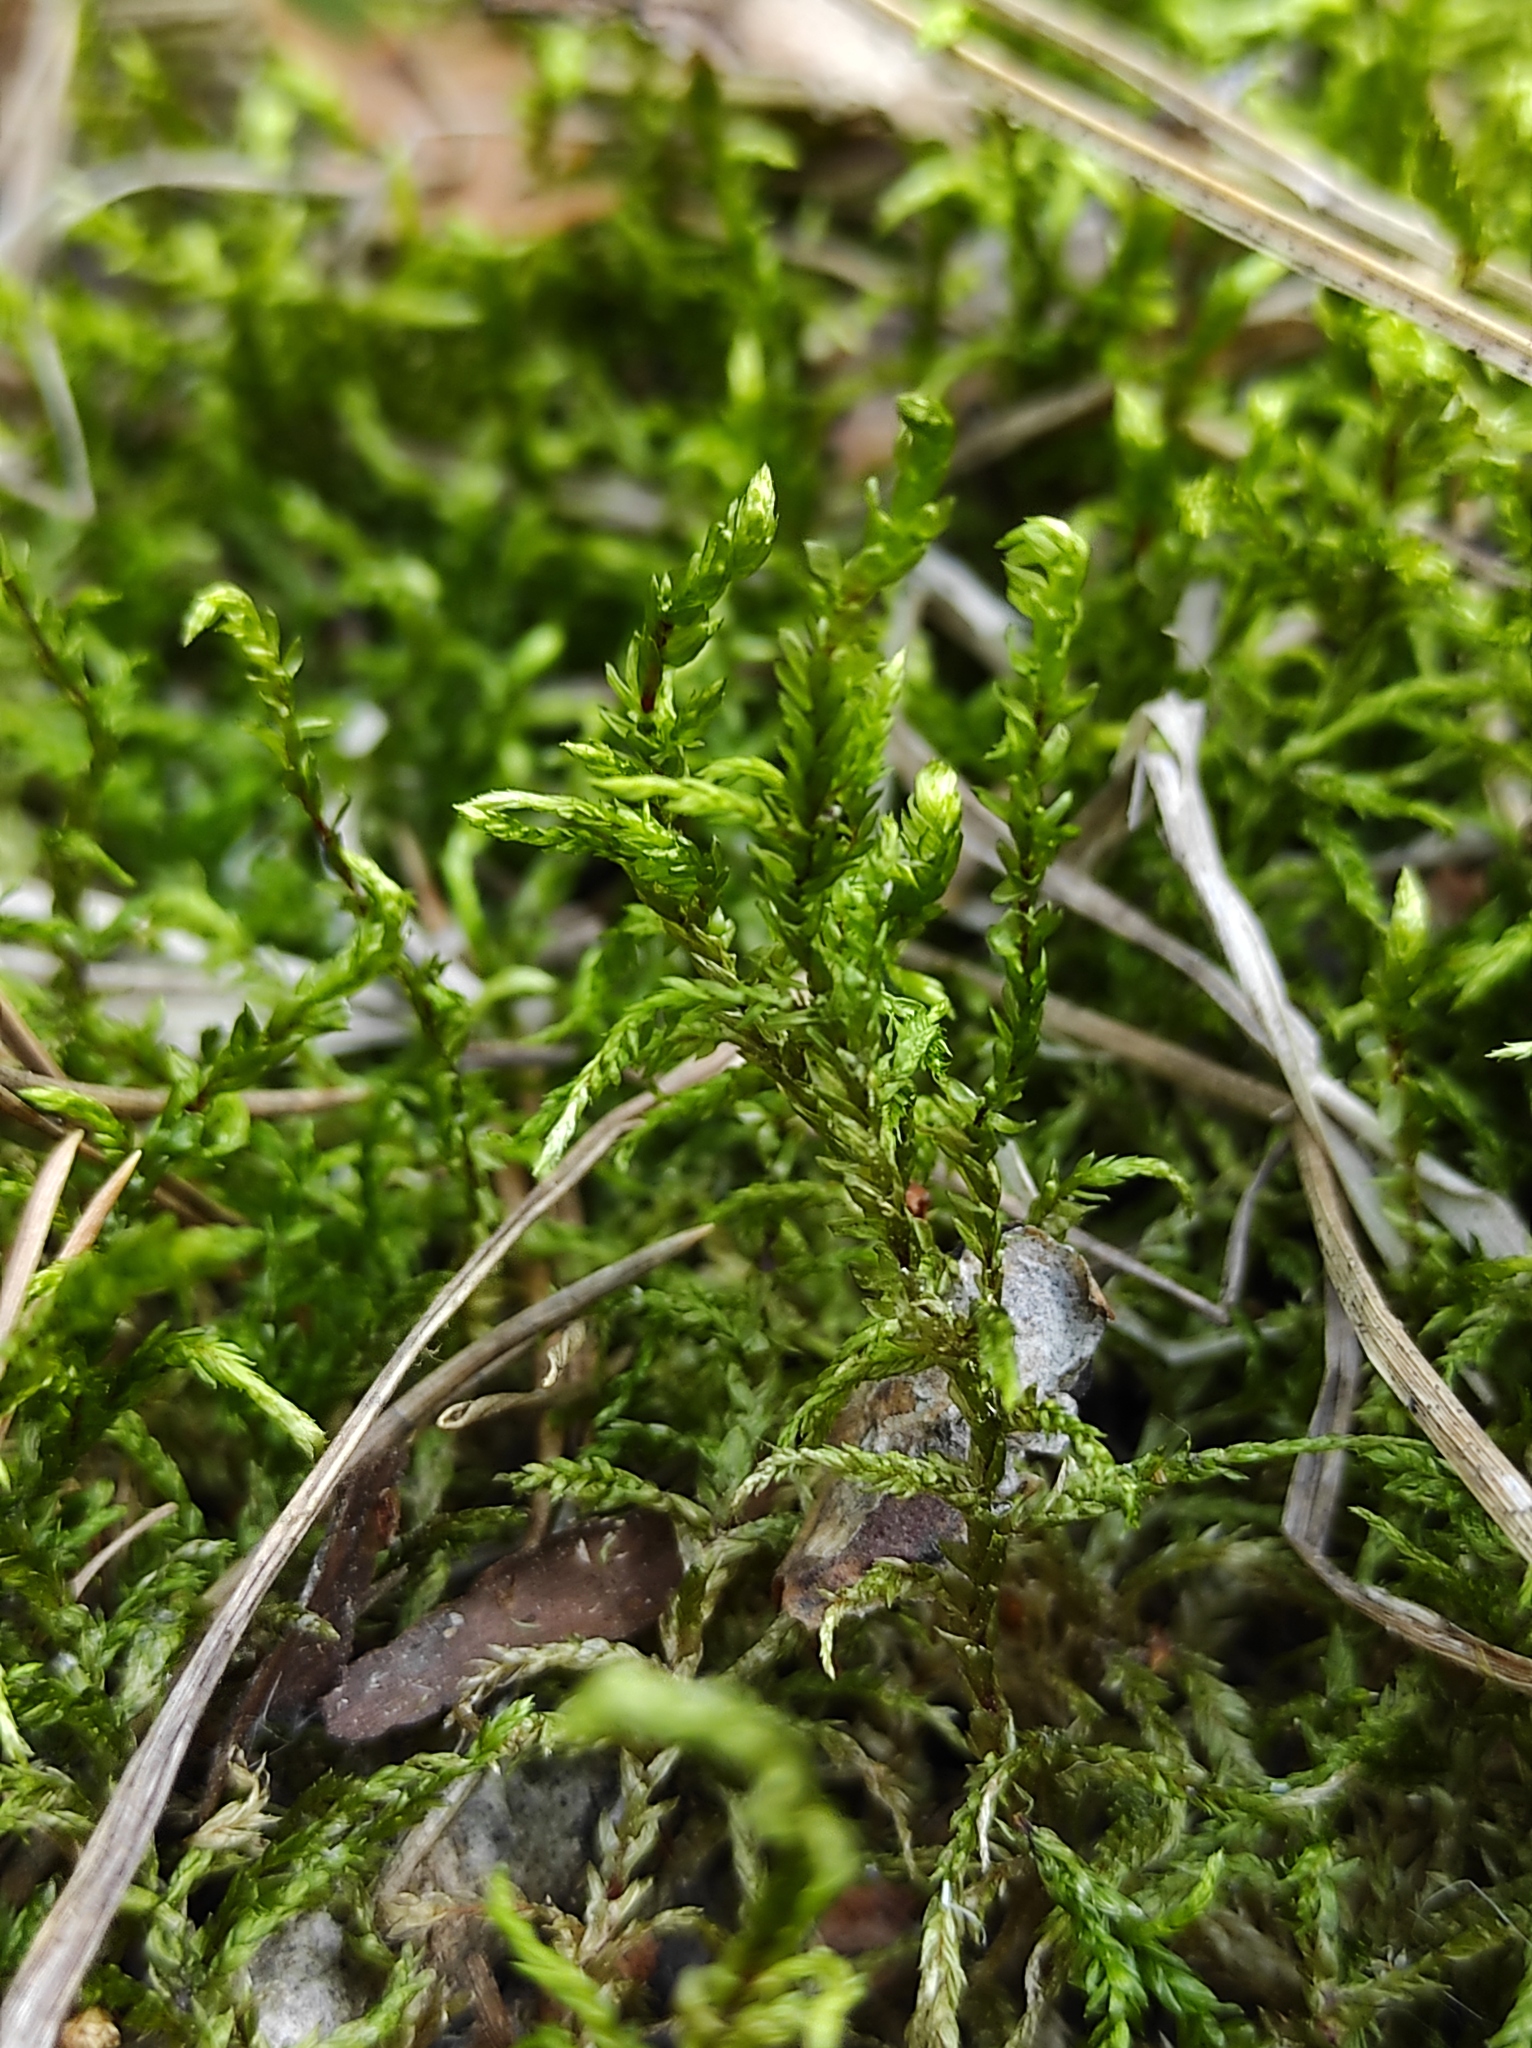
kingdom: Plantae
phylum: Bryophyta
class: Bryopsida
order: Hypnales
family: Hylocomiaceae
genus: Pleurozium
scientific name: Pleurozium schreberi
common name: Red-stemmed feather moss
